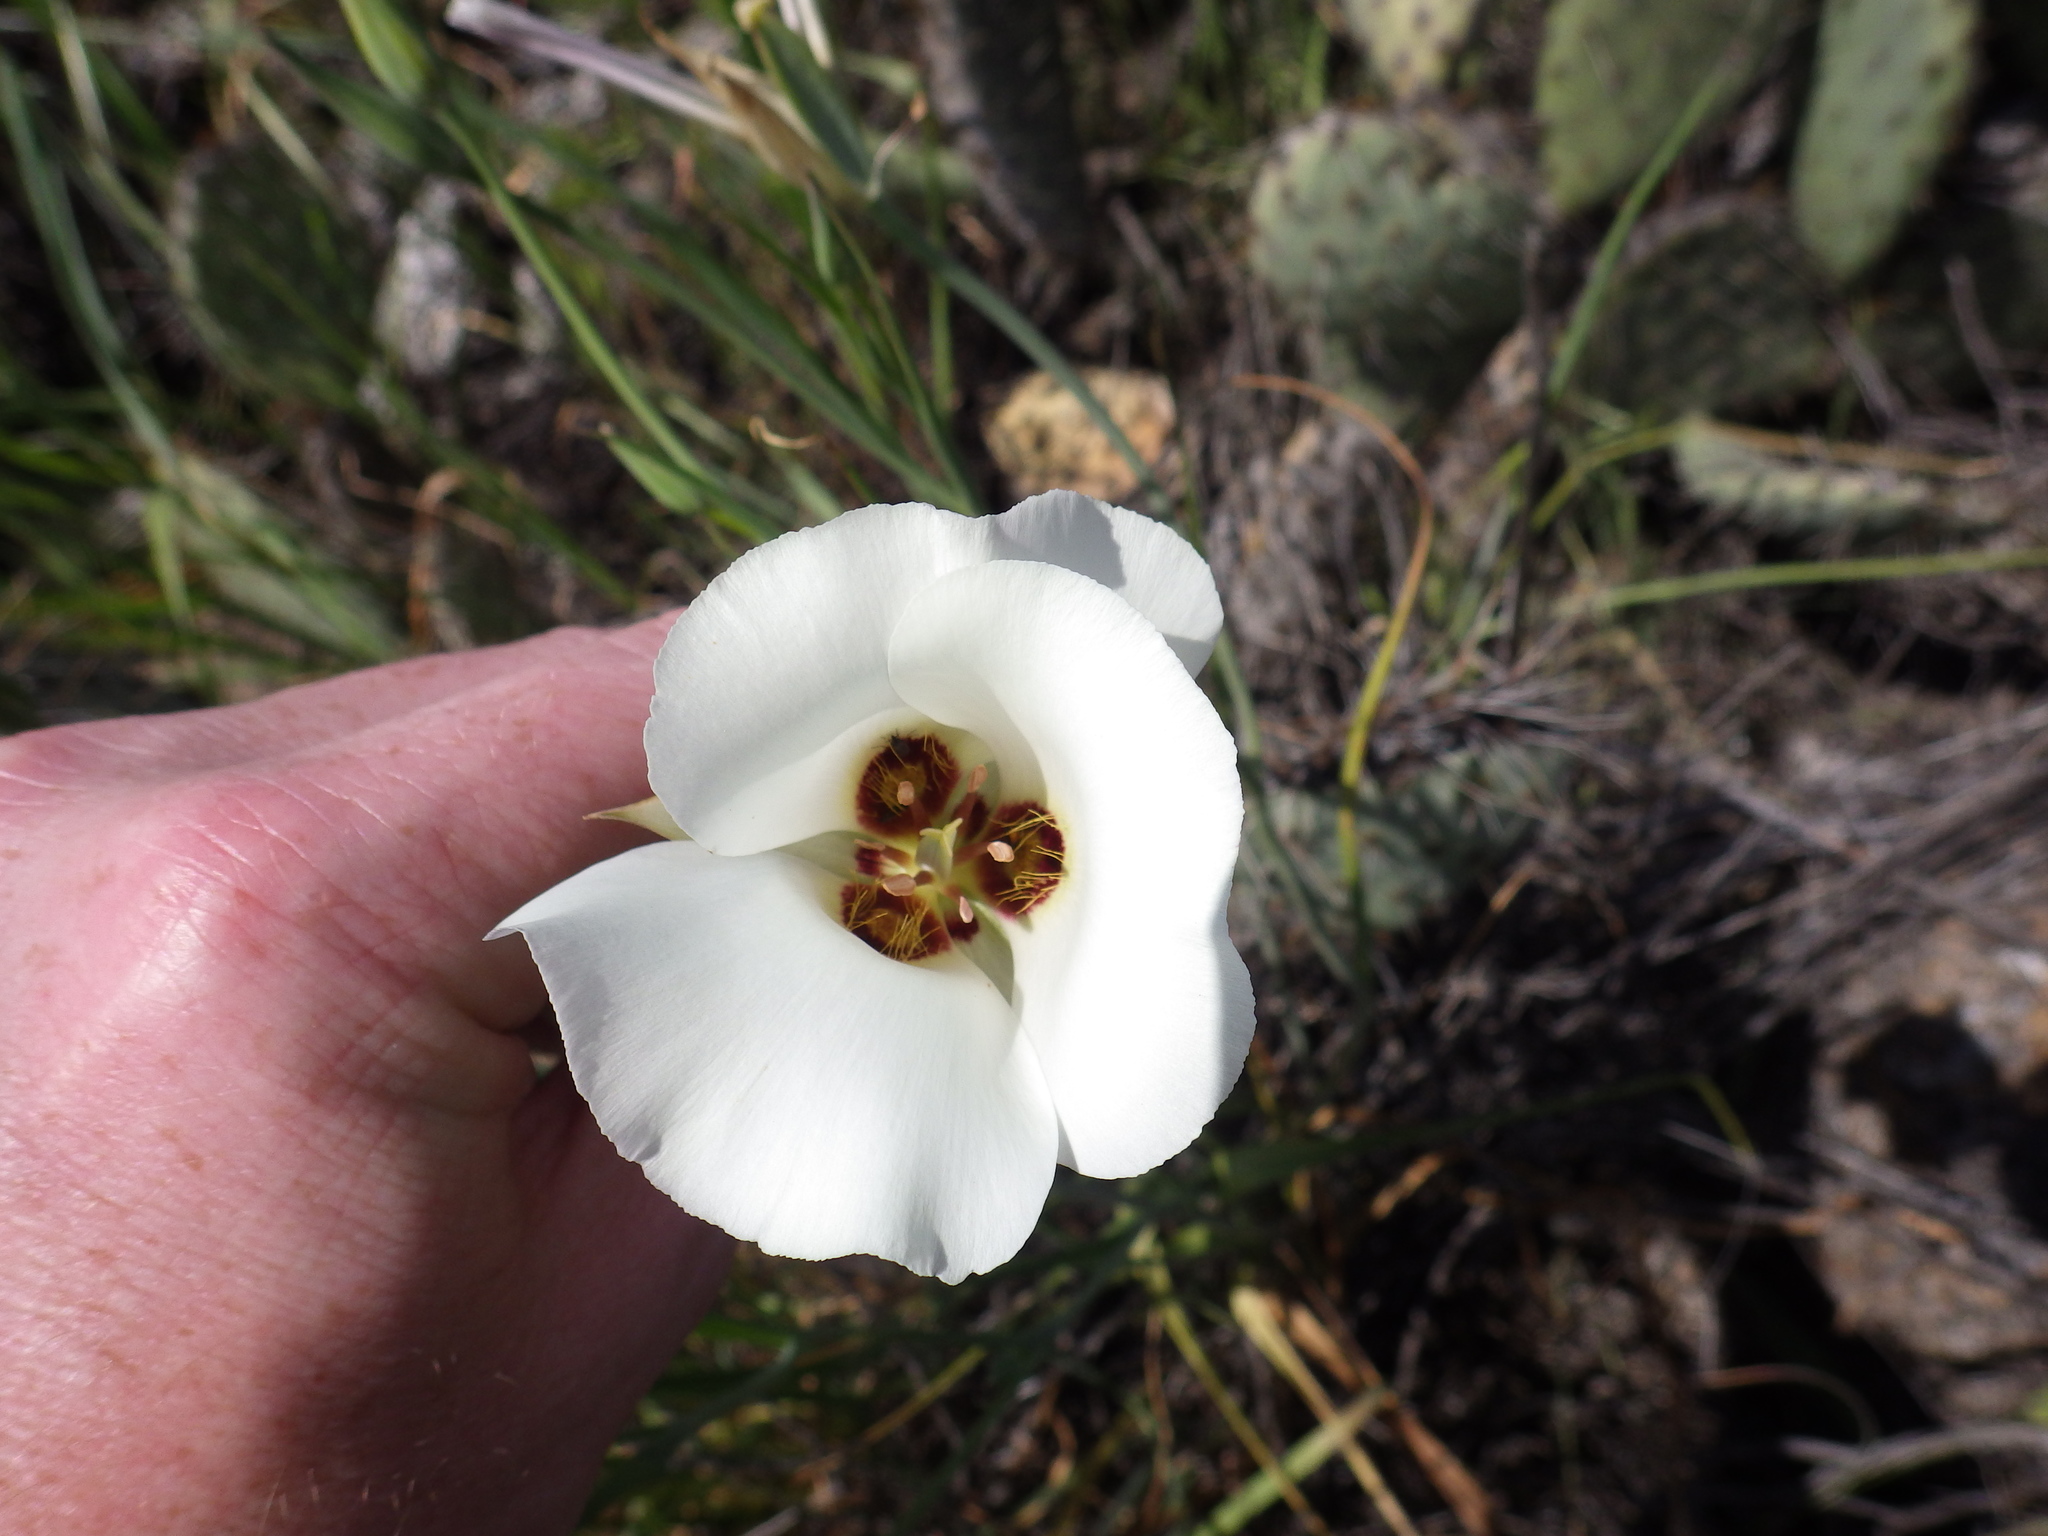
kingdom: Plantae
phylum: Tracheophyta
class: Liliopsida
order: Liliales
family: Liliaceae
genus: Calochortus
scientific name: Calochortus catalinae
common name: Catalina mariposa-lily
